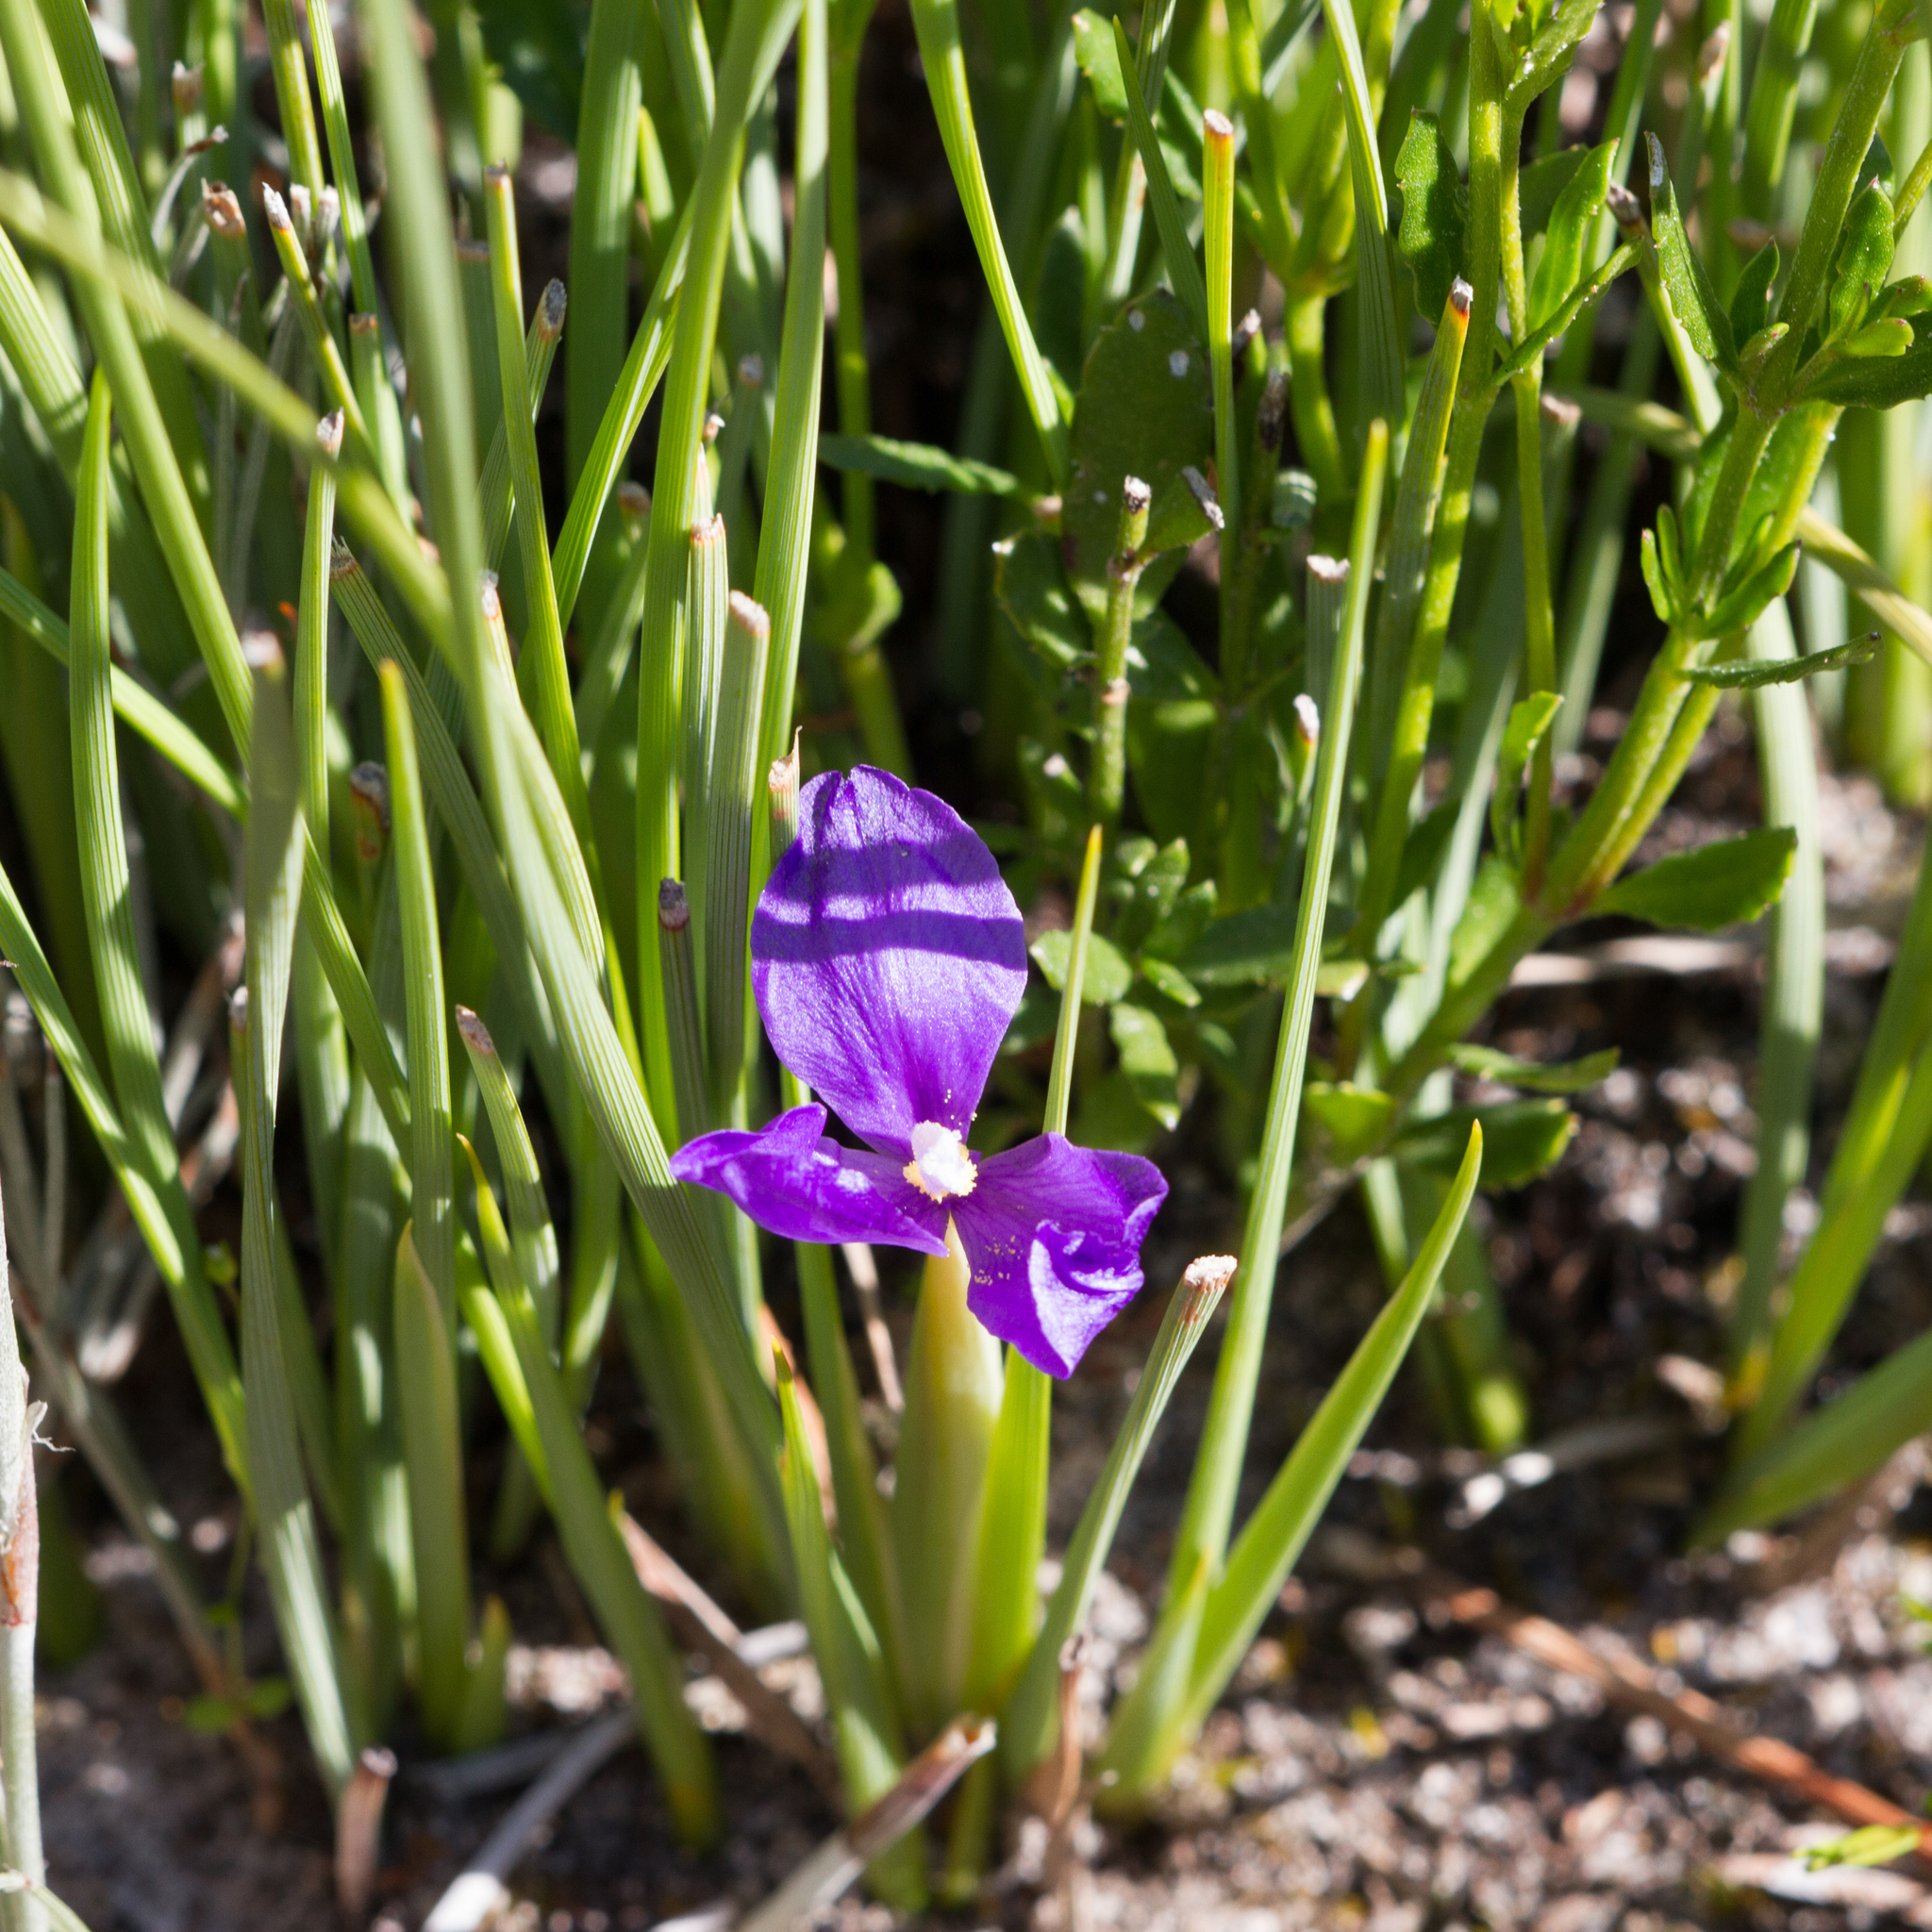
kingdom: Plantae
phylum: Tracheophyta
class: Liliopsida
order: Asparagales
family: Iridaceae
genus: Patersonia
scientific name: Patersonia fragilis
